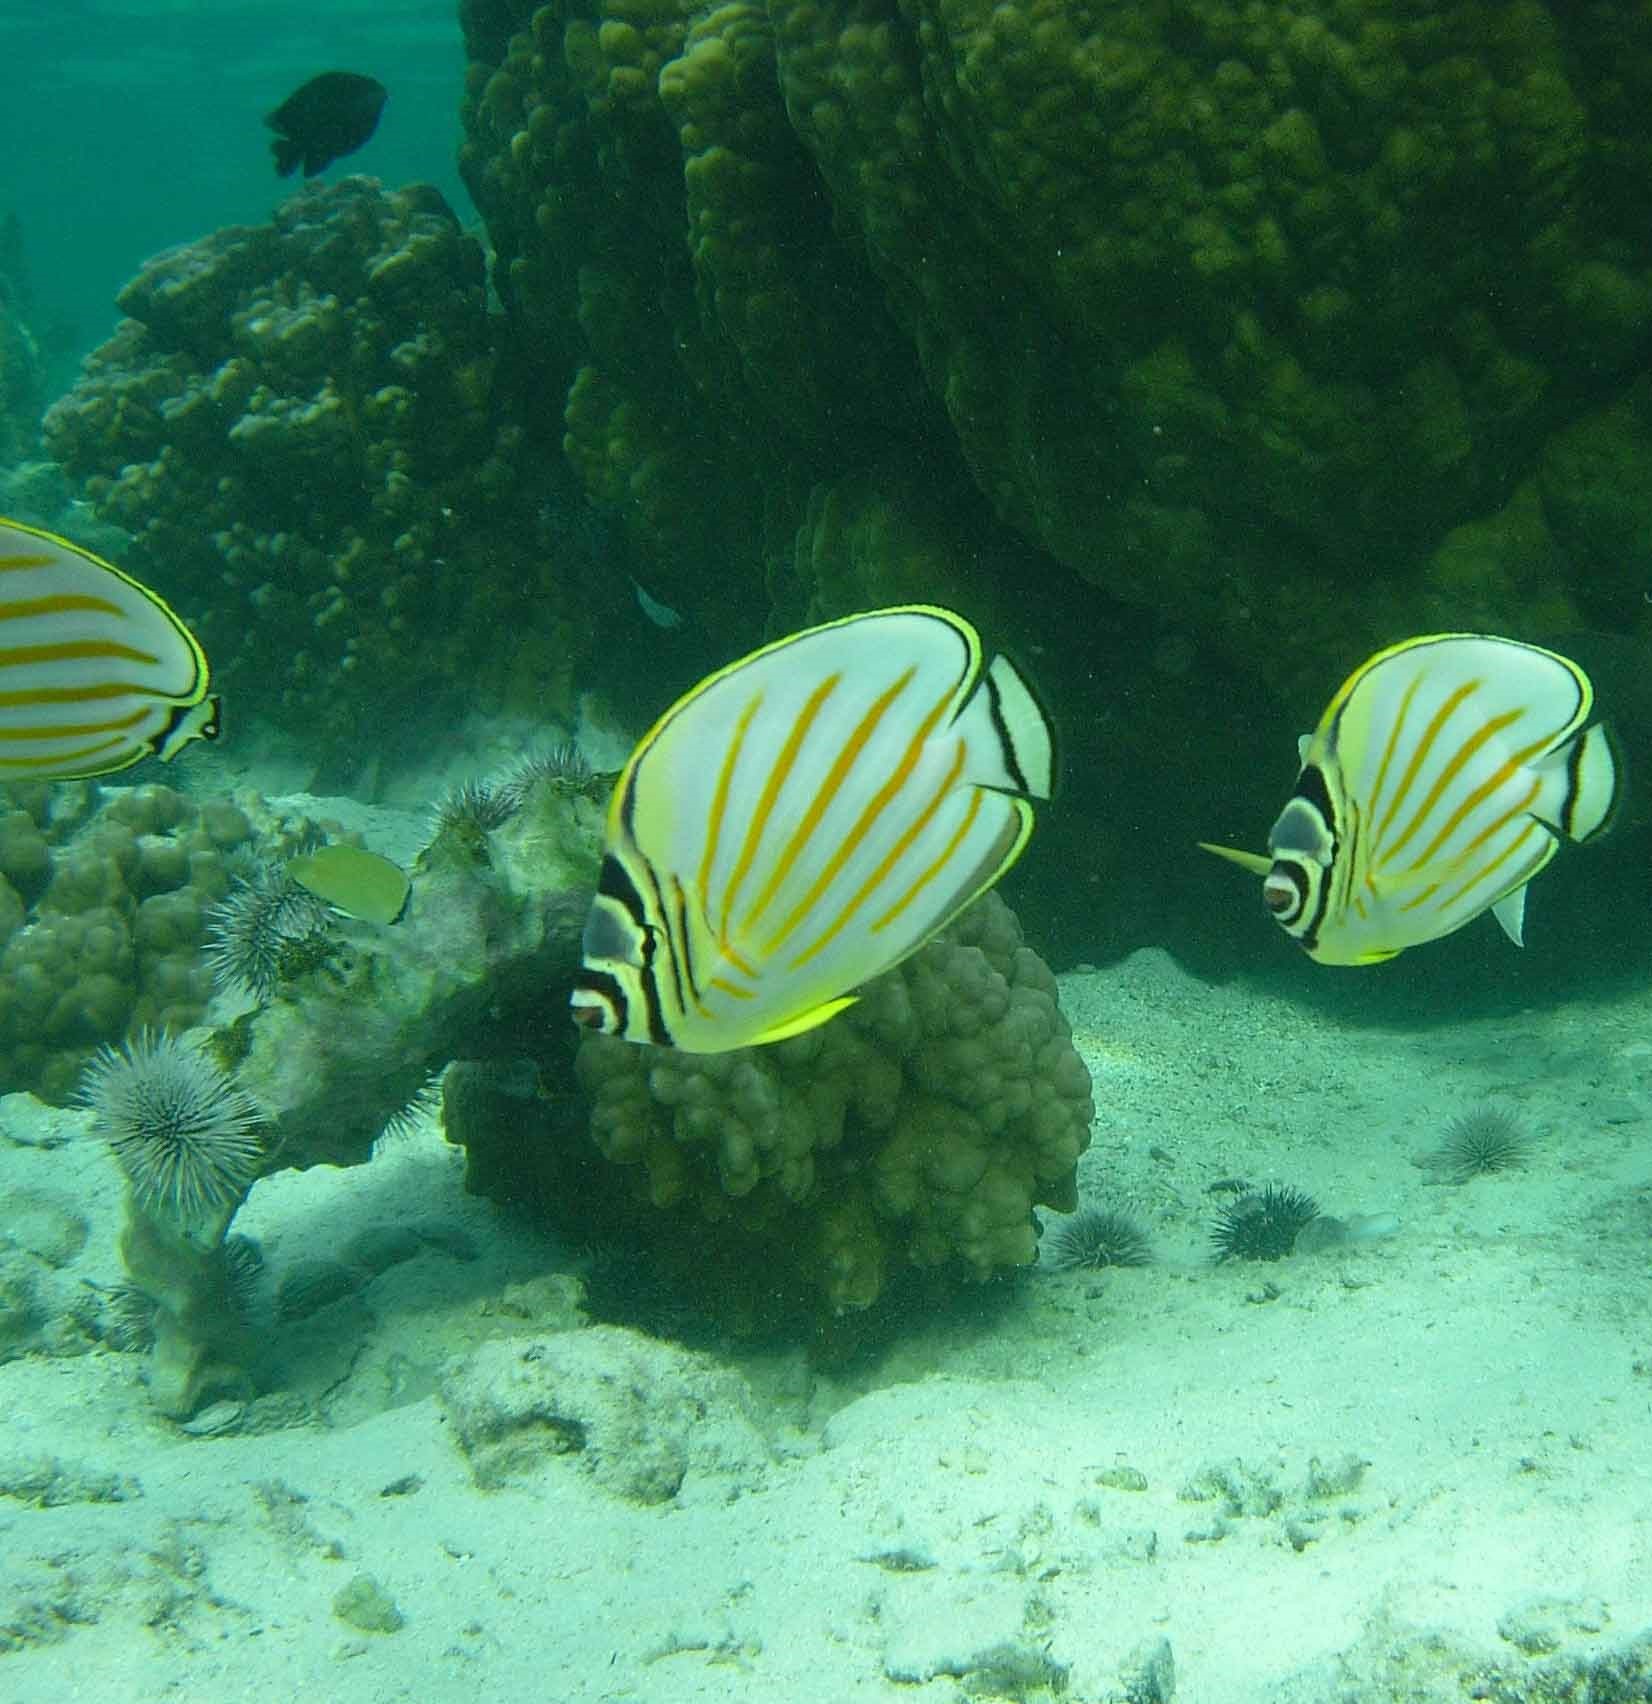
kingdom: Animalia
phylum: Chordata
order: Perciformes
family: Chaetodontidae
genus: Chaetodon
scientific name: Chaetodon ornatissimus
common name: Ornate butterflyfish
